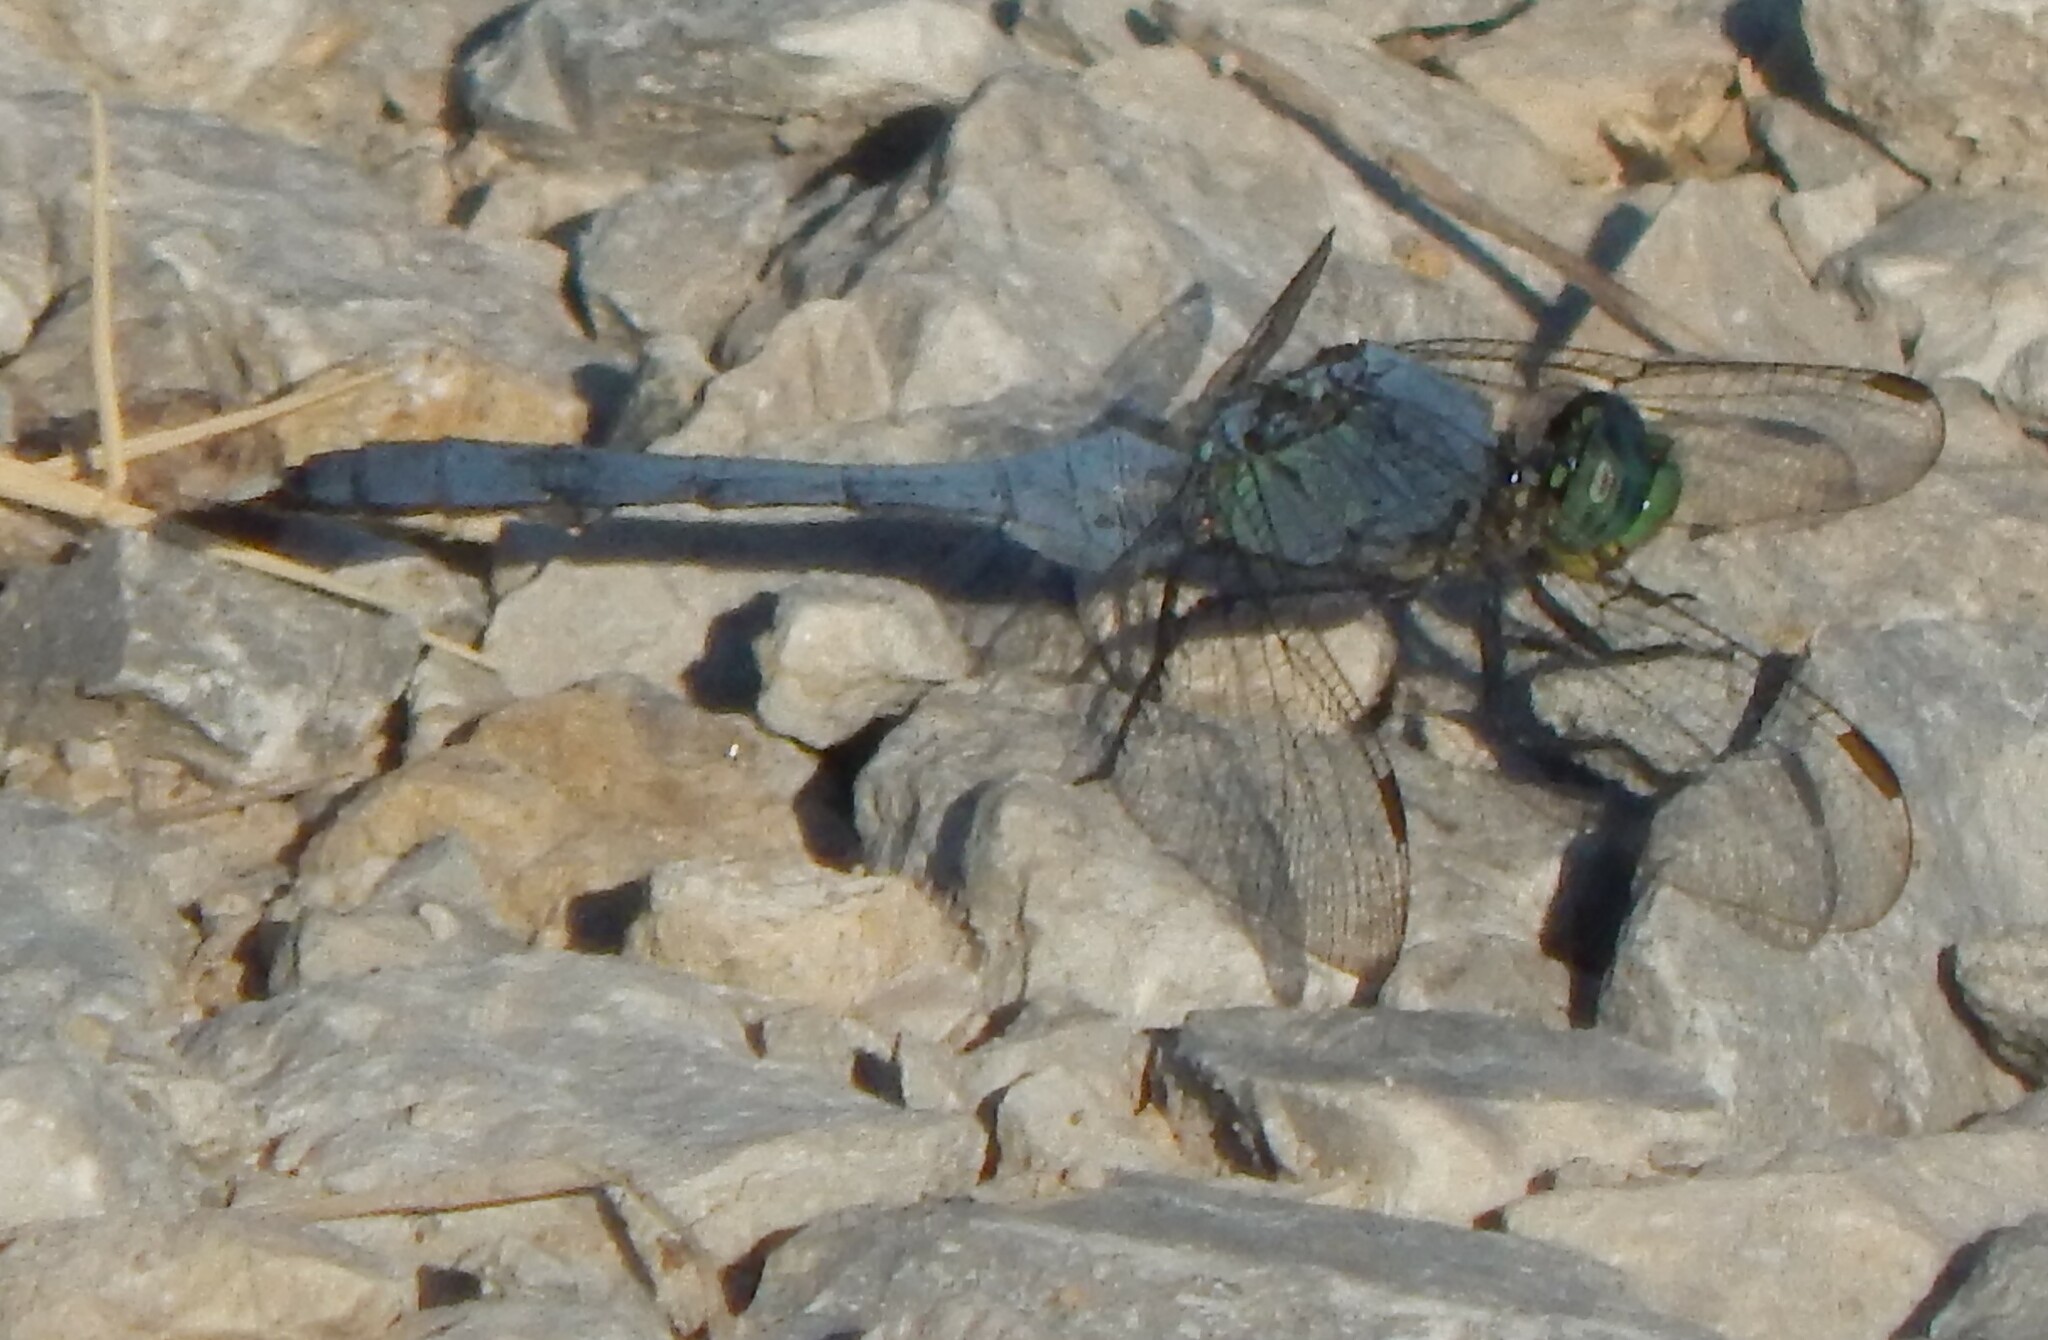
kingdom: Animalia
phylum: Arthropoda
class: Insecta
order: Odonata
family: Libellulidae
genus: Erythemis
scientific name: Erythemis simplicicollis
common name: Eastern pondhawk
